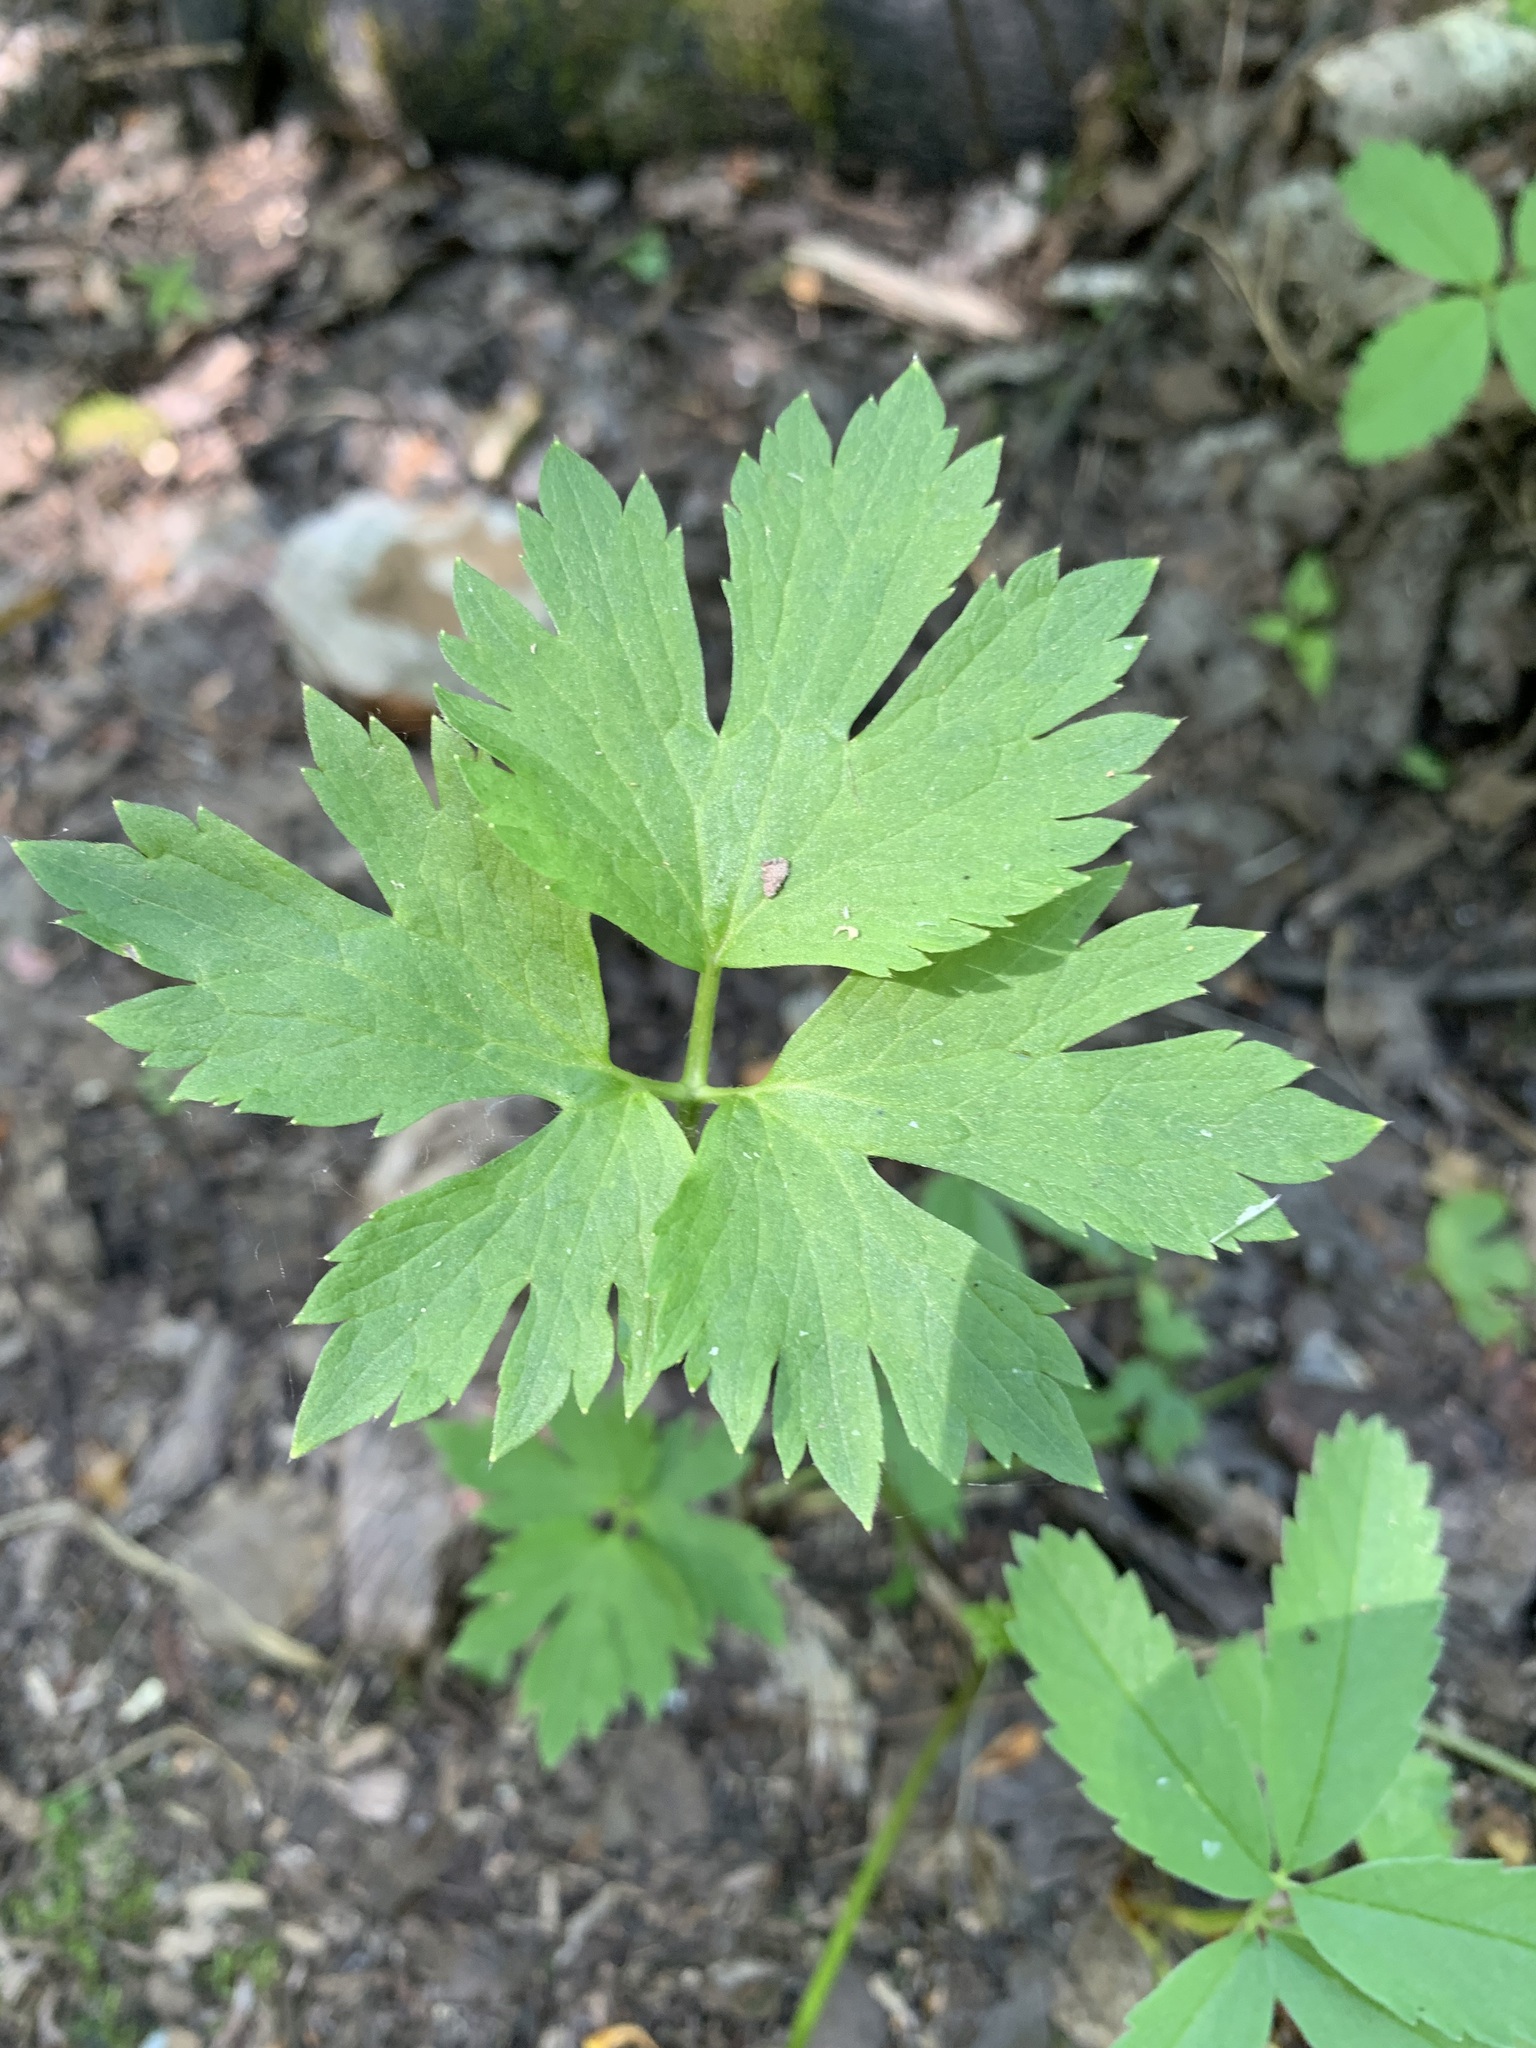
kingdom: Plantae
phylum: Tracheophyta
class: Magnoliopsida
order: Ranunculales
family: Ranunculaceae
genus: Ranunculus
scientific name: Ranunculus repens
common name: Creeping buttercup
